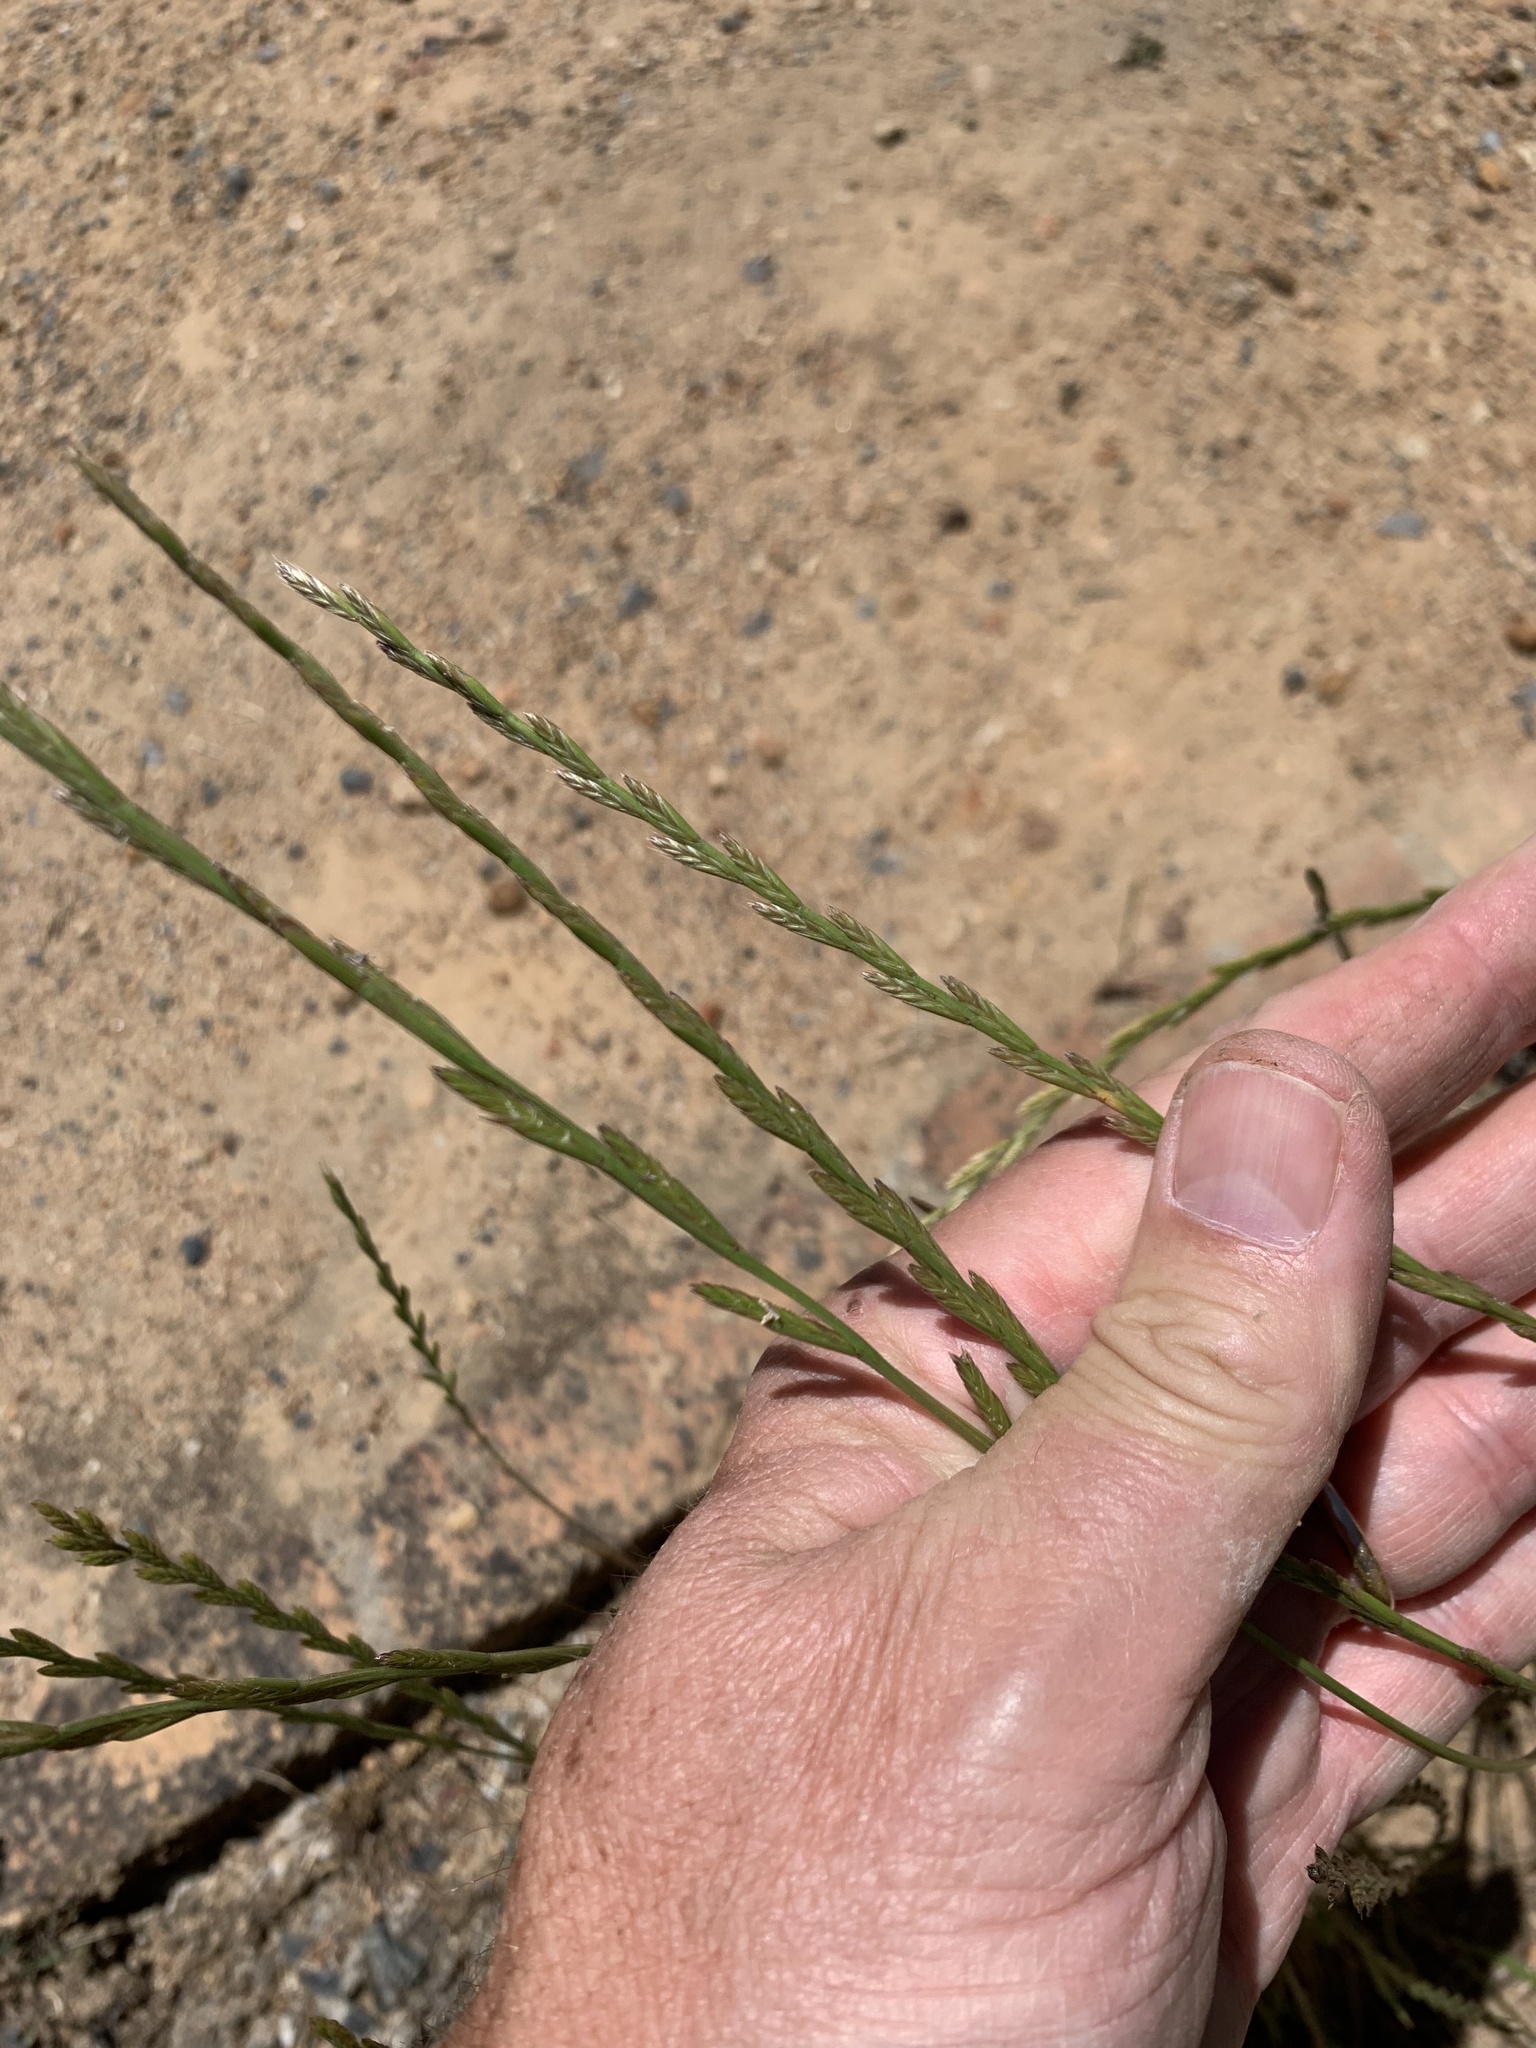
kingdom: Plantae
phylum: Tracheophyta
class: Liliopsida
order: Poales
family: Poaceae
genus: Lolium
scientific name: Lolium multiflorum
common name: Annual ryegrass
